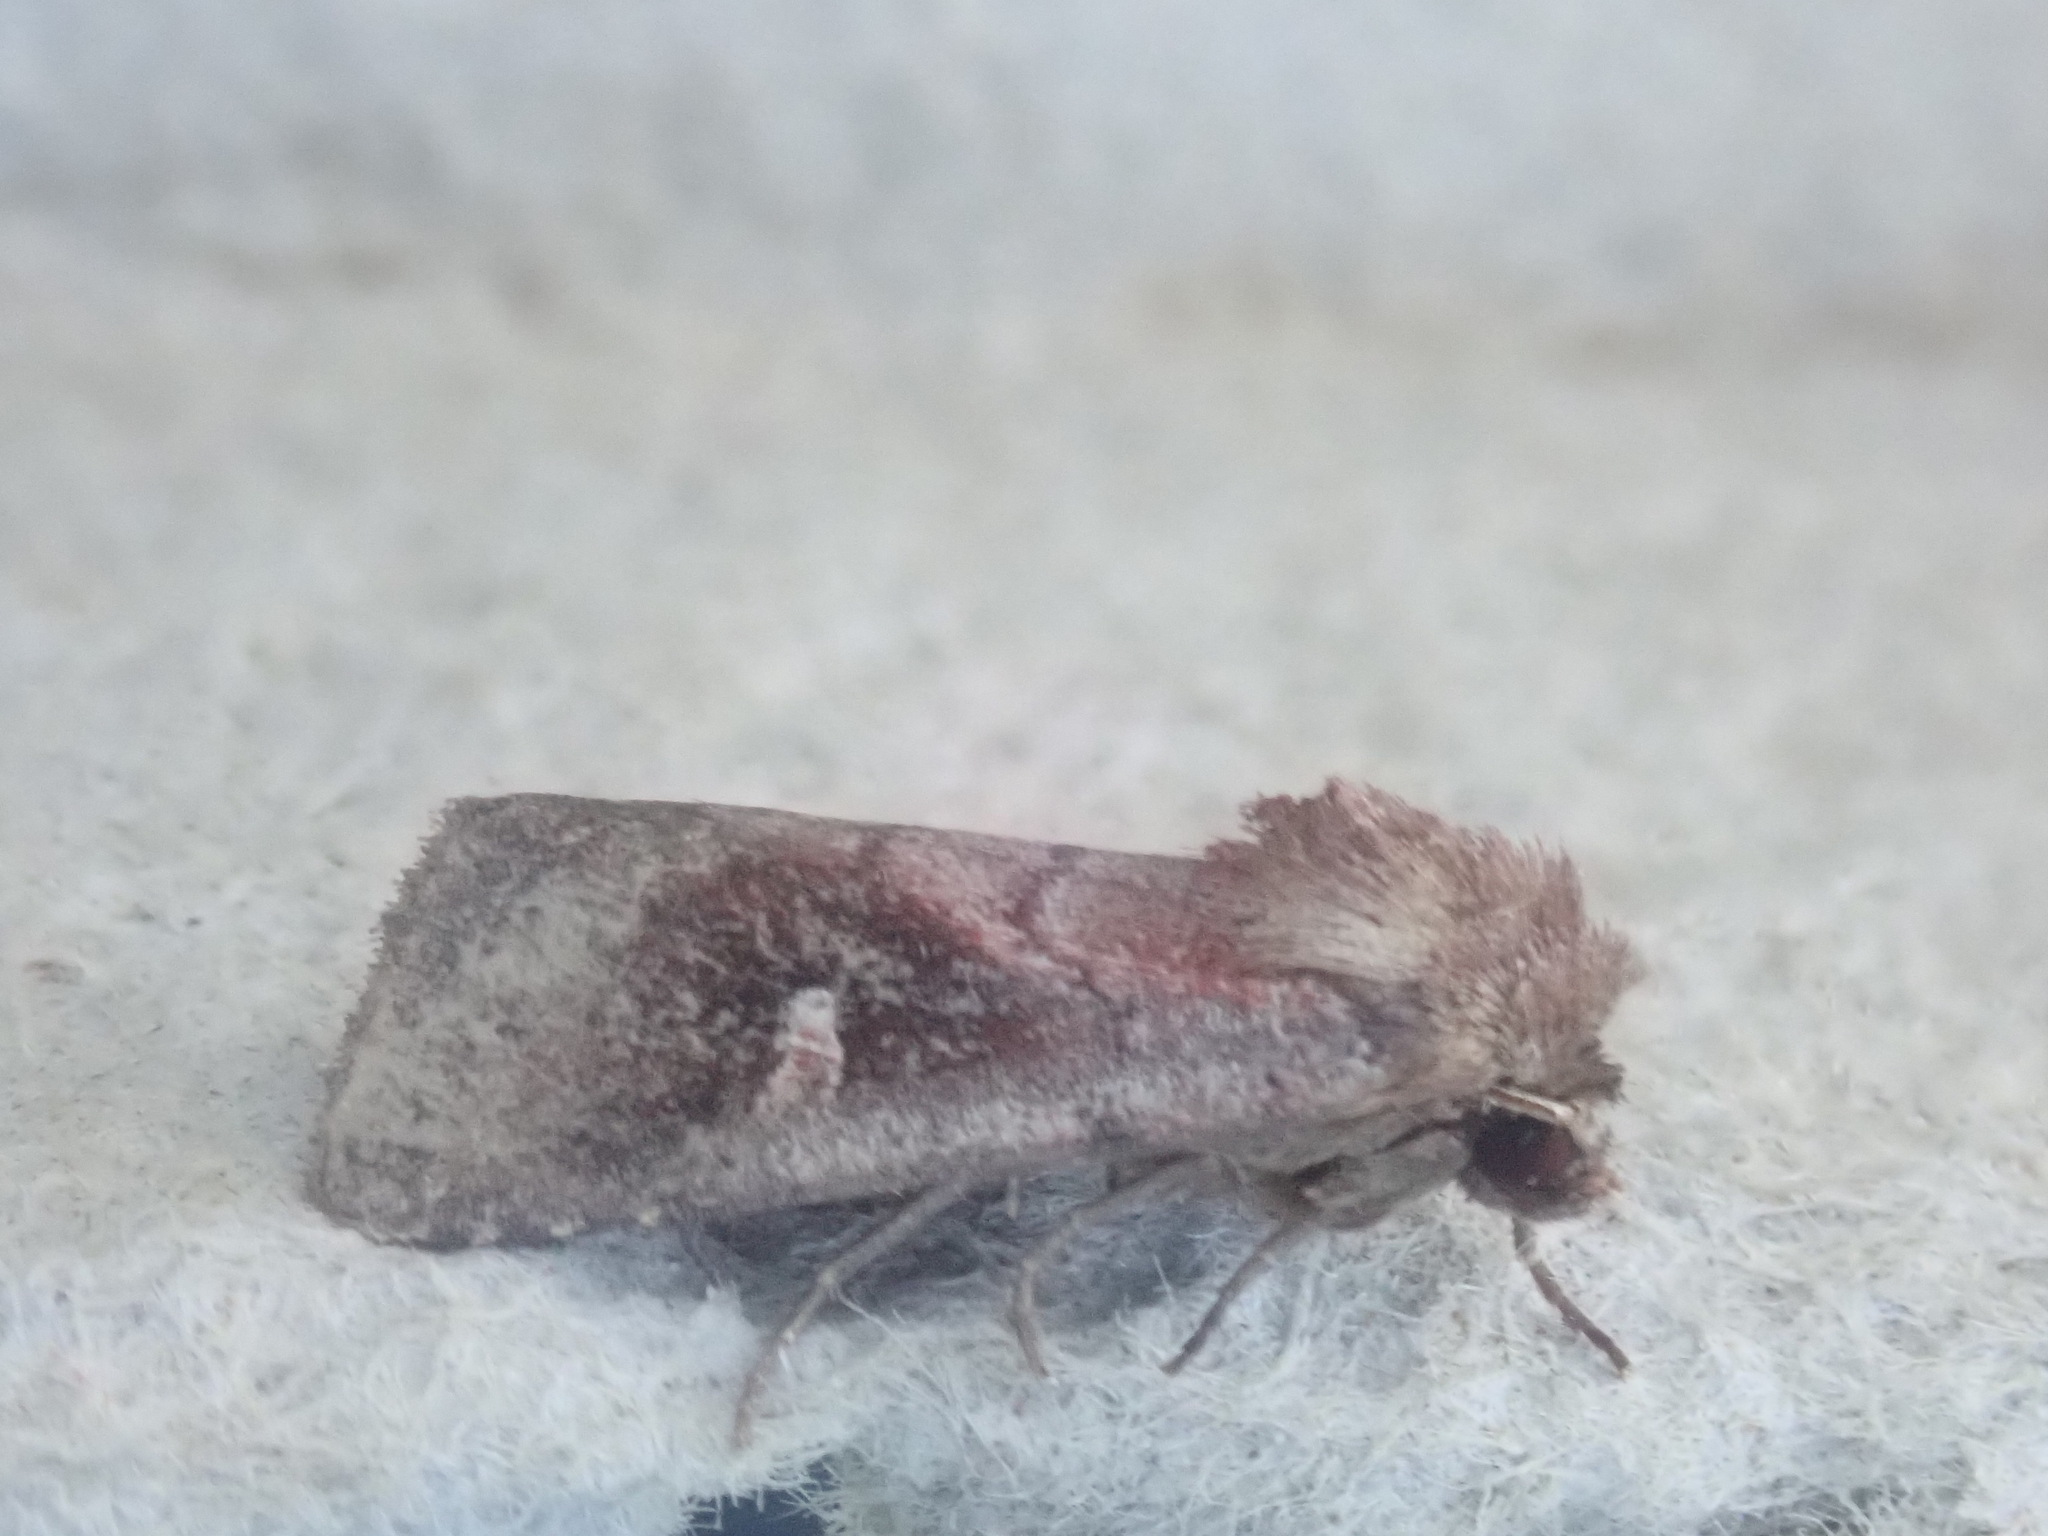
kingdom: Animalia
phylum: Arthropoda
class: Insecta
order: Lepidoptera
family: Noctuidae
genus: Iodopepla
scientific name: Iodopepla ualbum
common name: White-eyed borer moth
